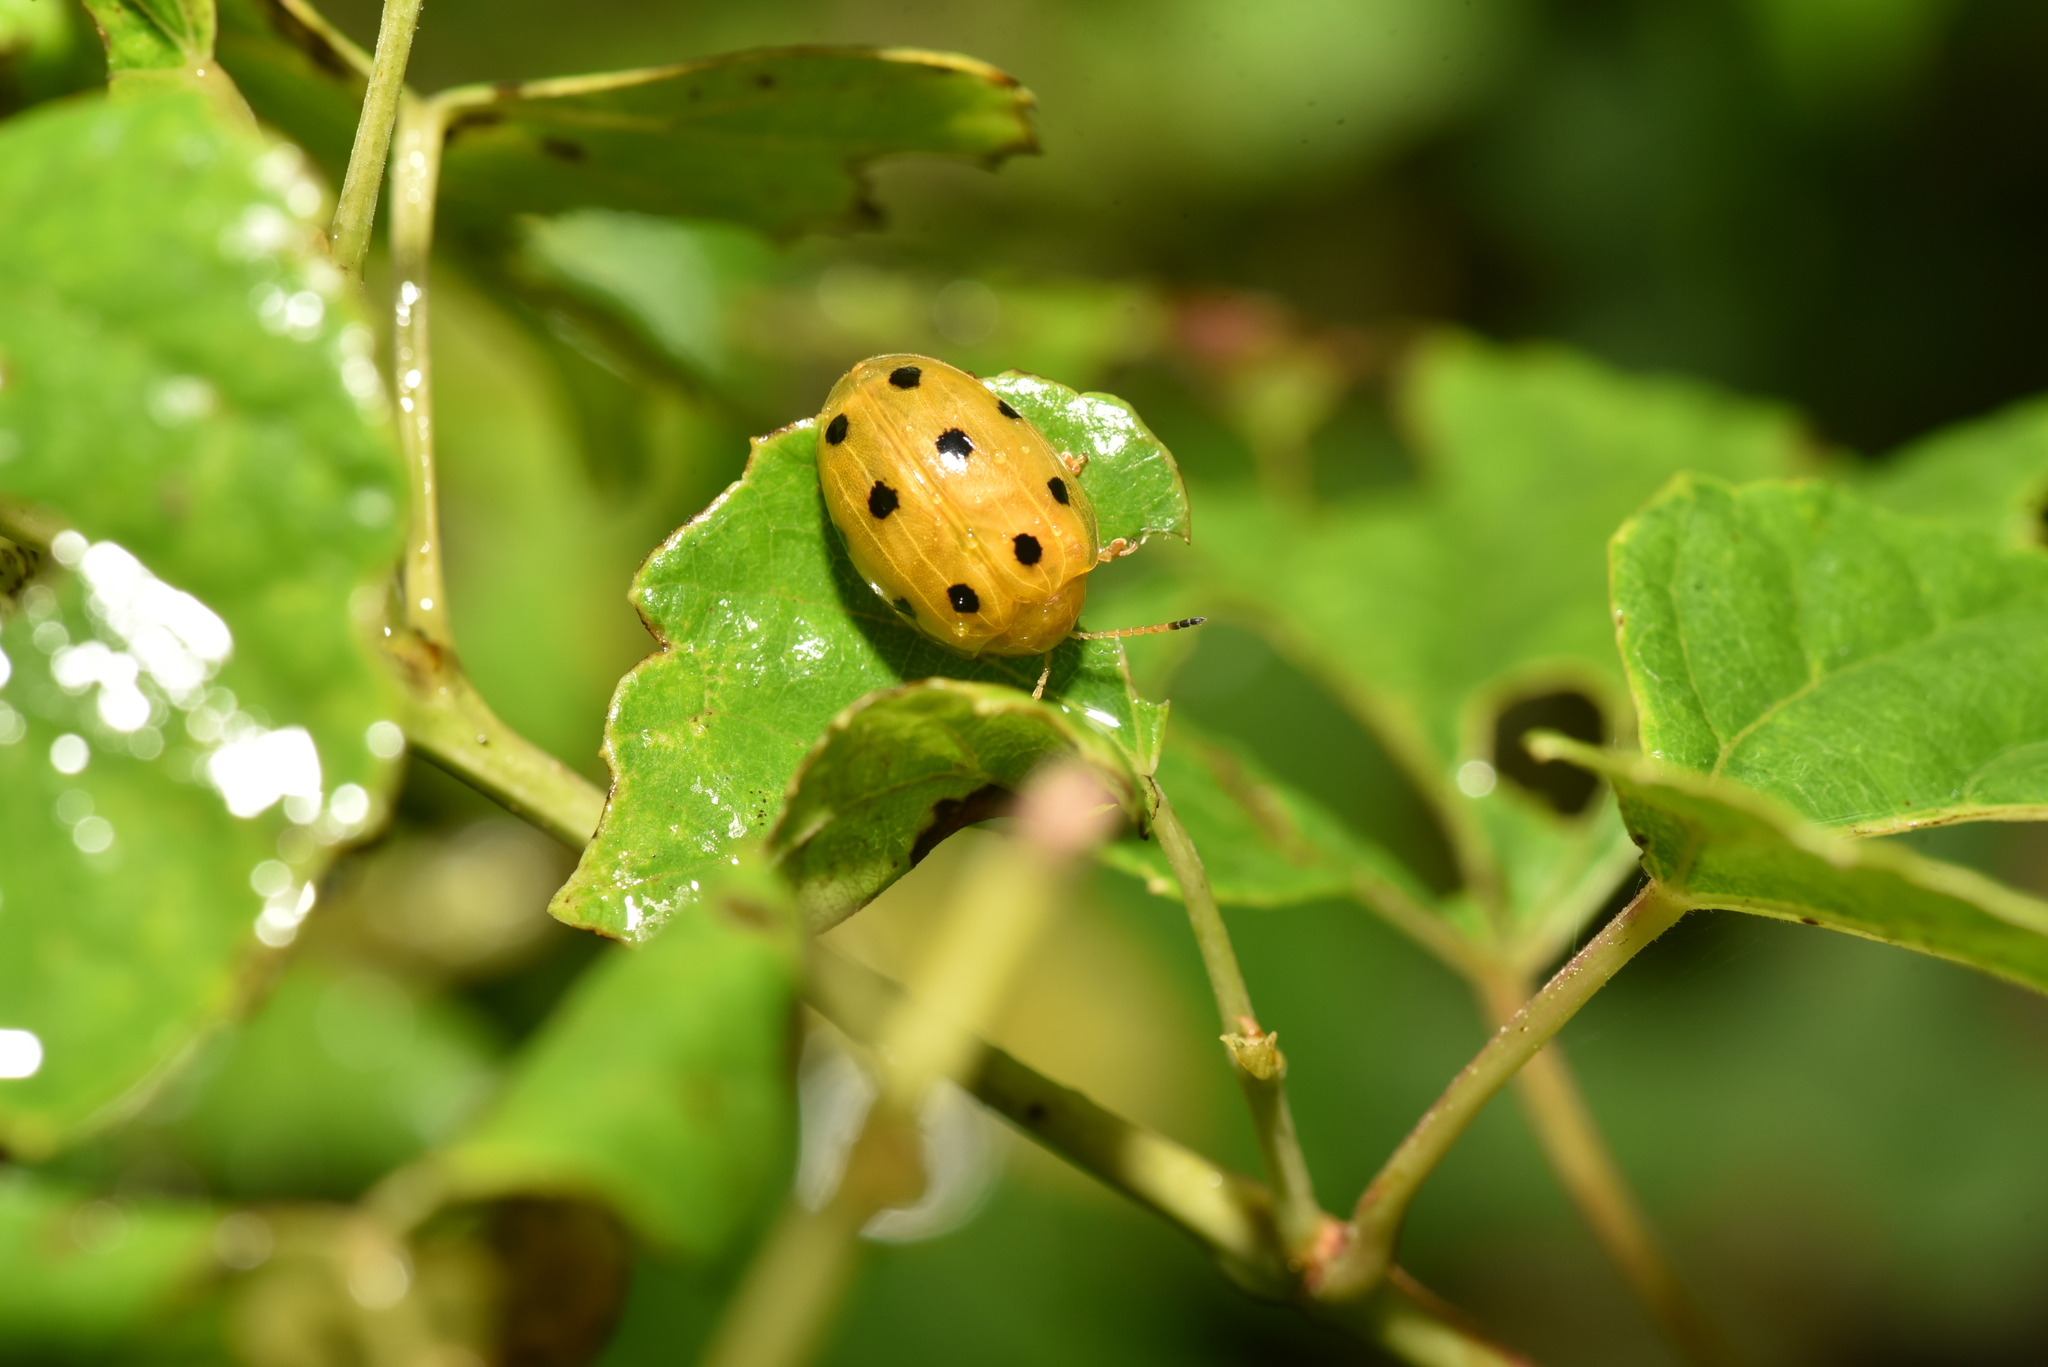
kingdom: Animalia
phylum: Arthropoda
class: Insecta
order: Coleoptera
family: Chrysomelidae
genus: Oides
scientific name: Oides decempunctata
